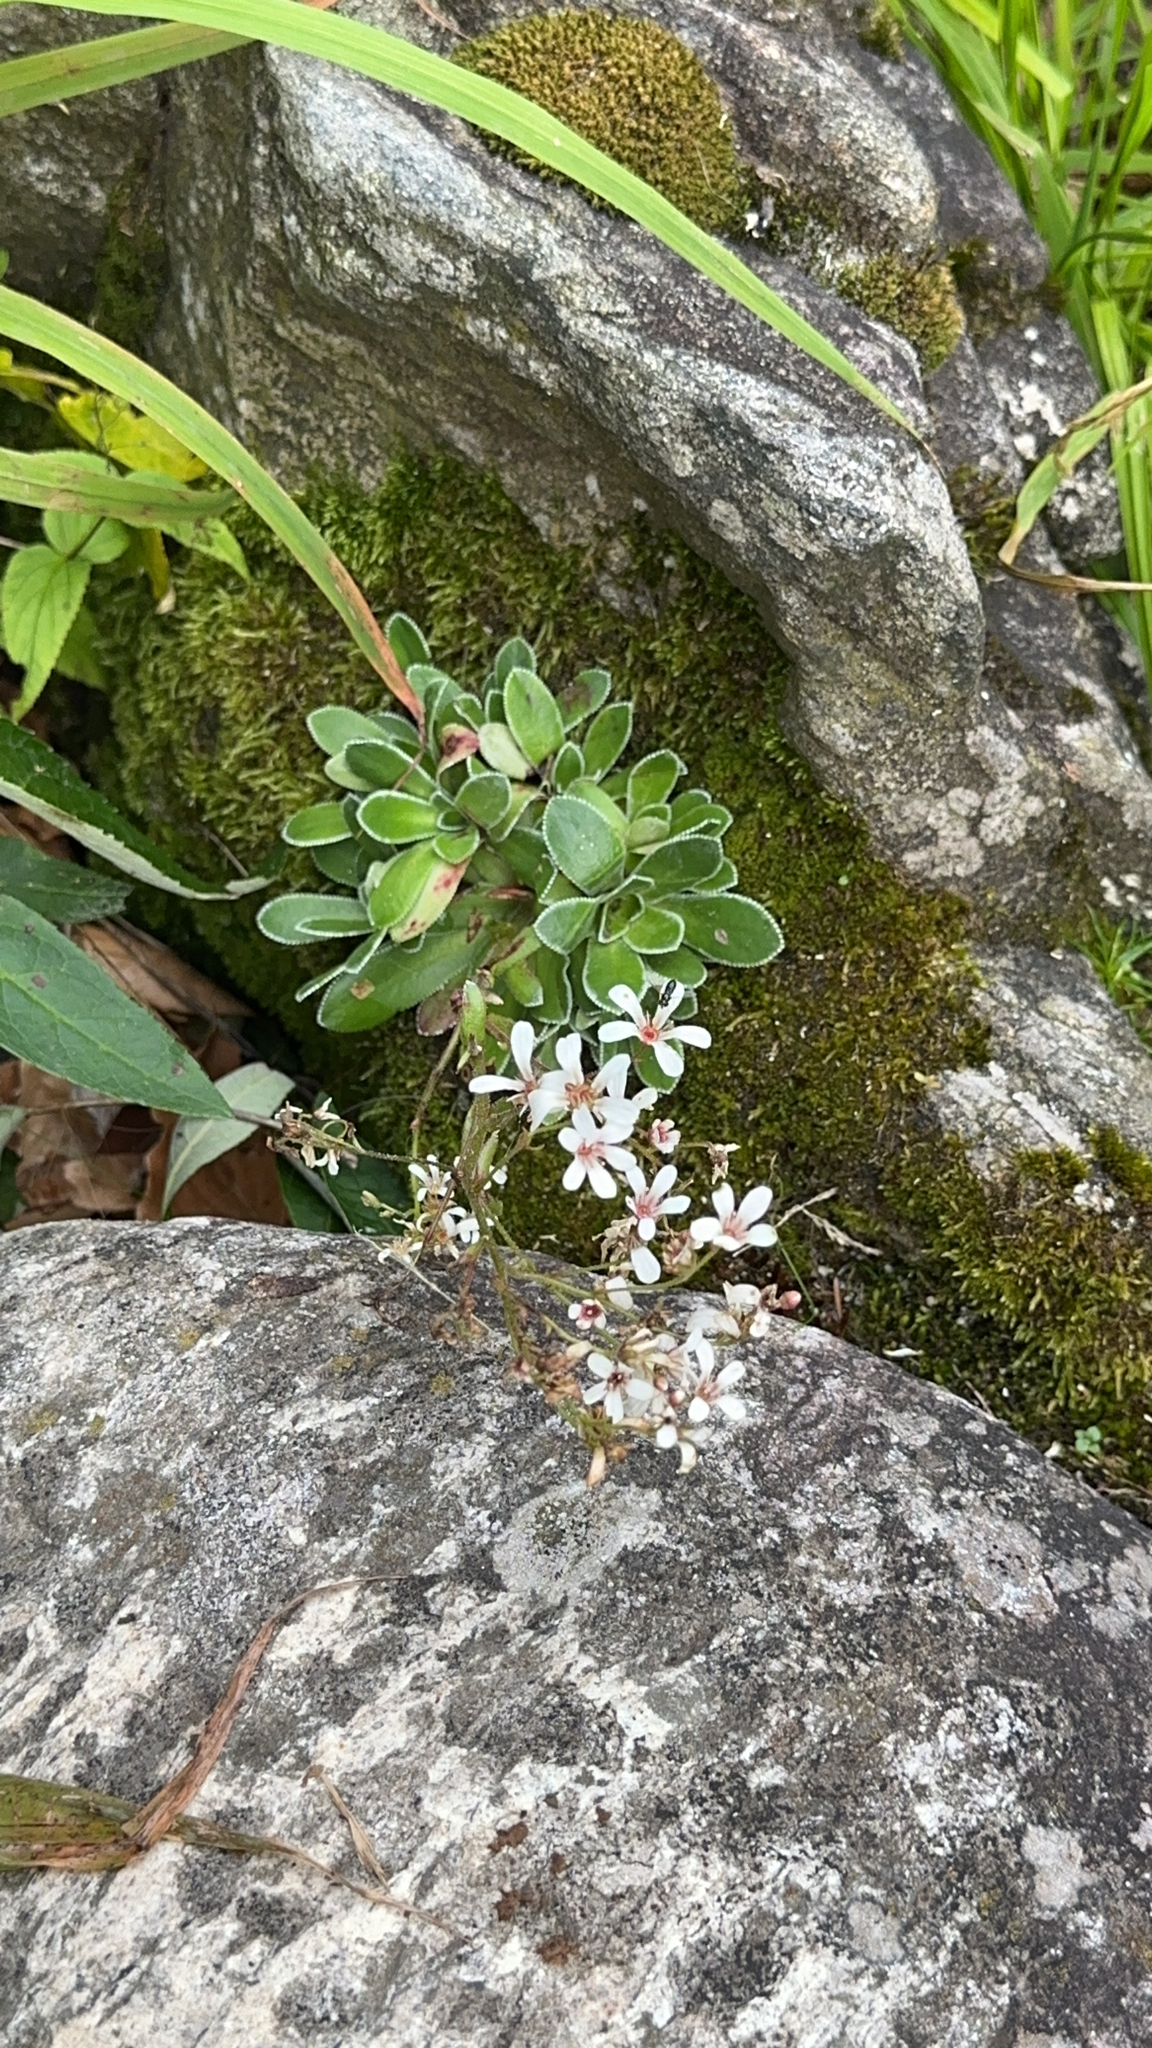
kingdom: Plantae
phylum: Tracheophyta
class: Magnoliopsida
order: Saxifragales
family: Saxifragaceae
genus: Saxifraga
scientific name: Saxifraga cotyledon
